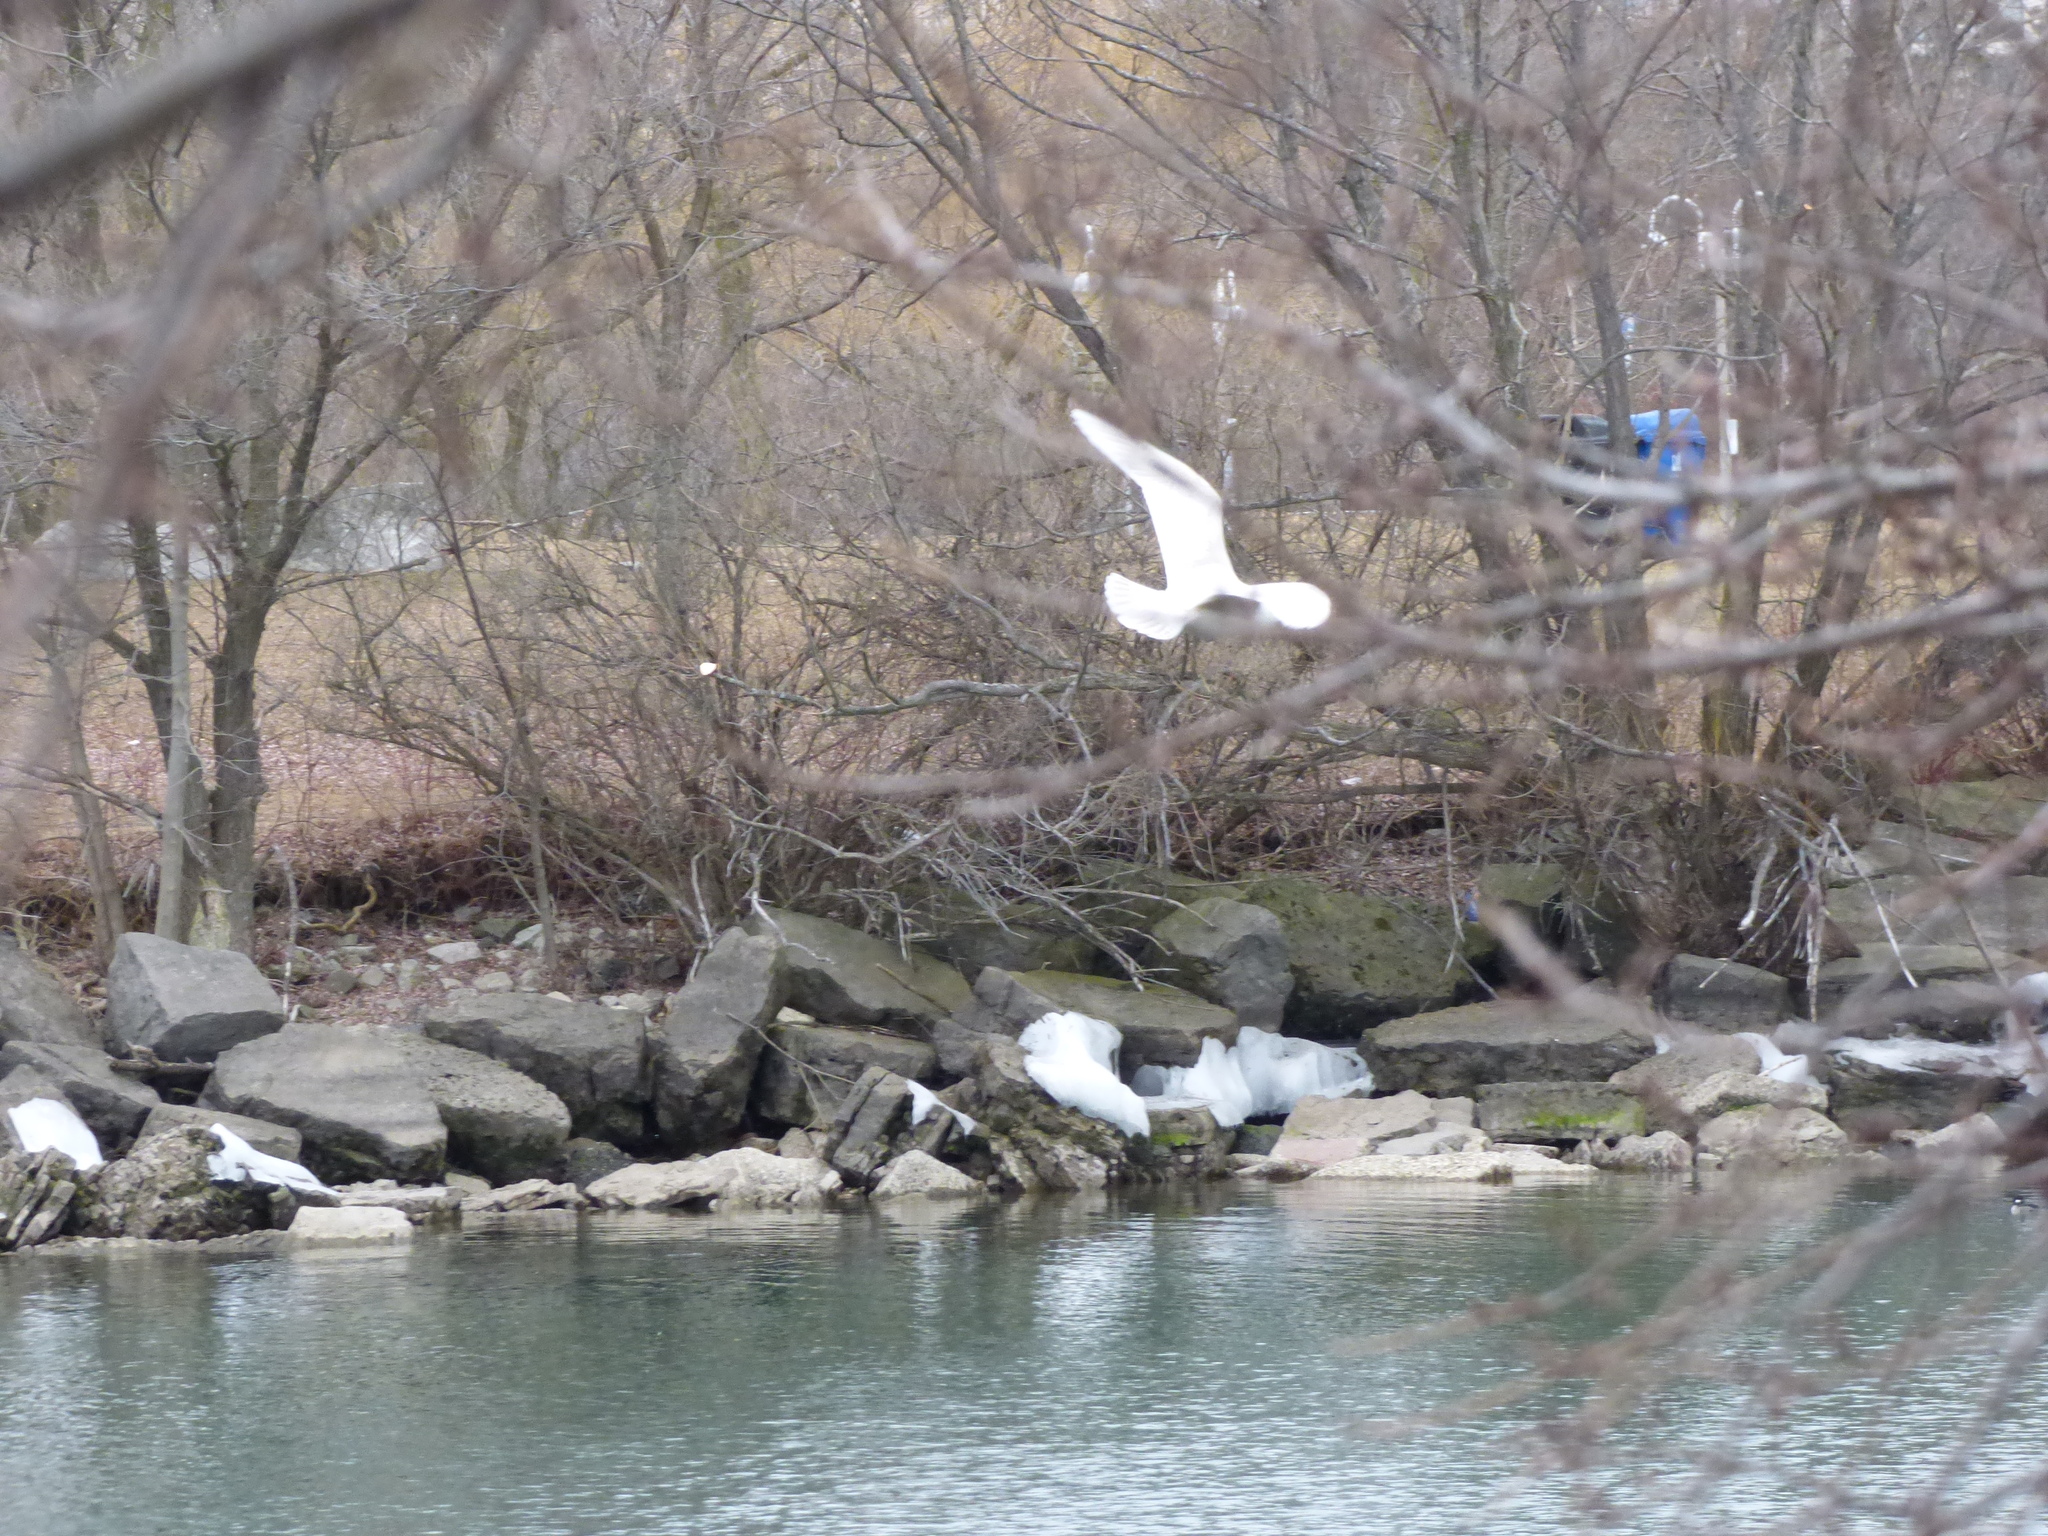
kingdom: Animalia
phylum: Chordata
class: Aves
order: Charadriiformes
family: Laridae
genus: Larus
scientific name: Larus glaucoides
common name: Iceland gull
